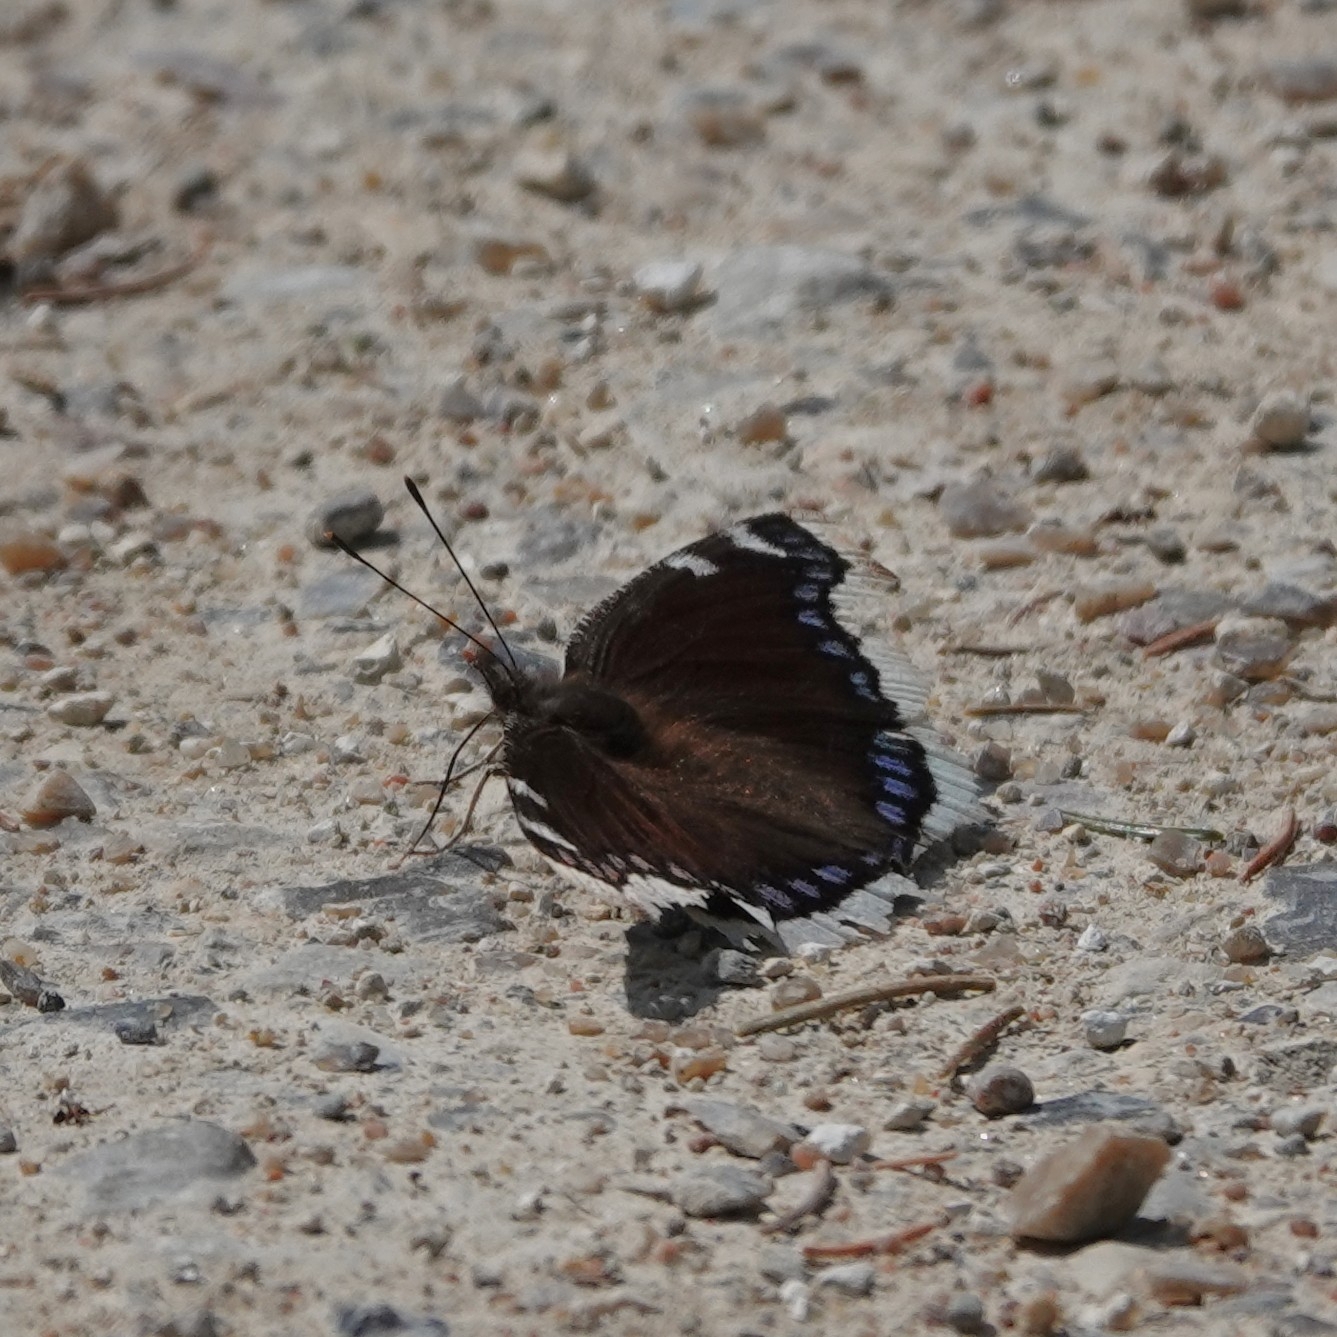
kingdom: Animalia
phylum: Arthropoda
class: Insecta
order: Lepidoptera
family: Nymphalidae
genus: Nymphalis
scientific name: Nymphalis antiopa
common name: Camberwell beauty
